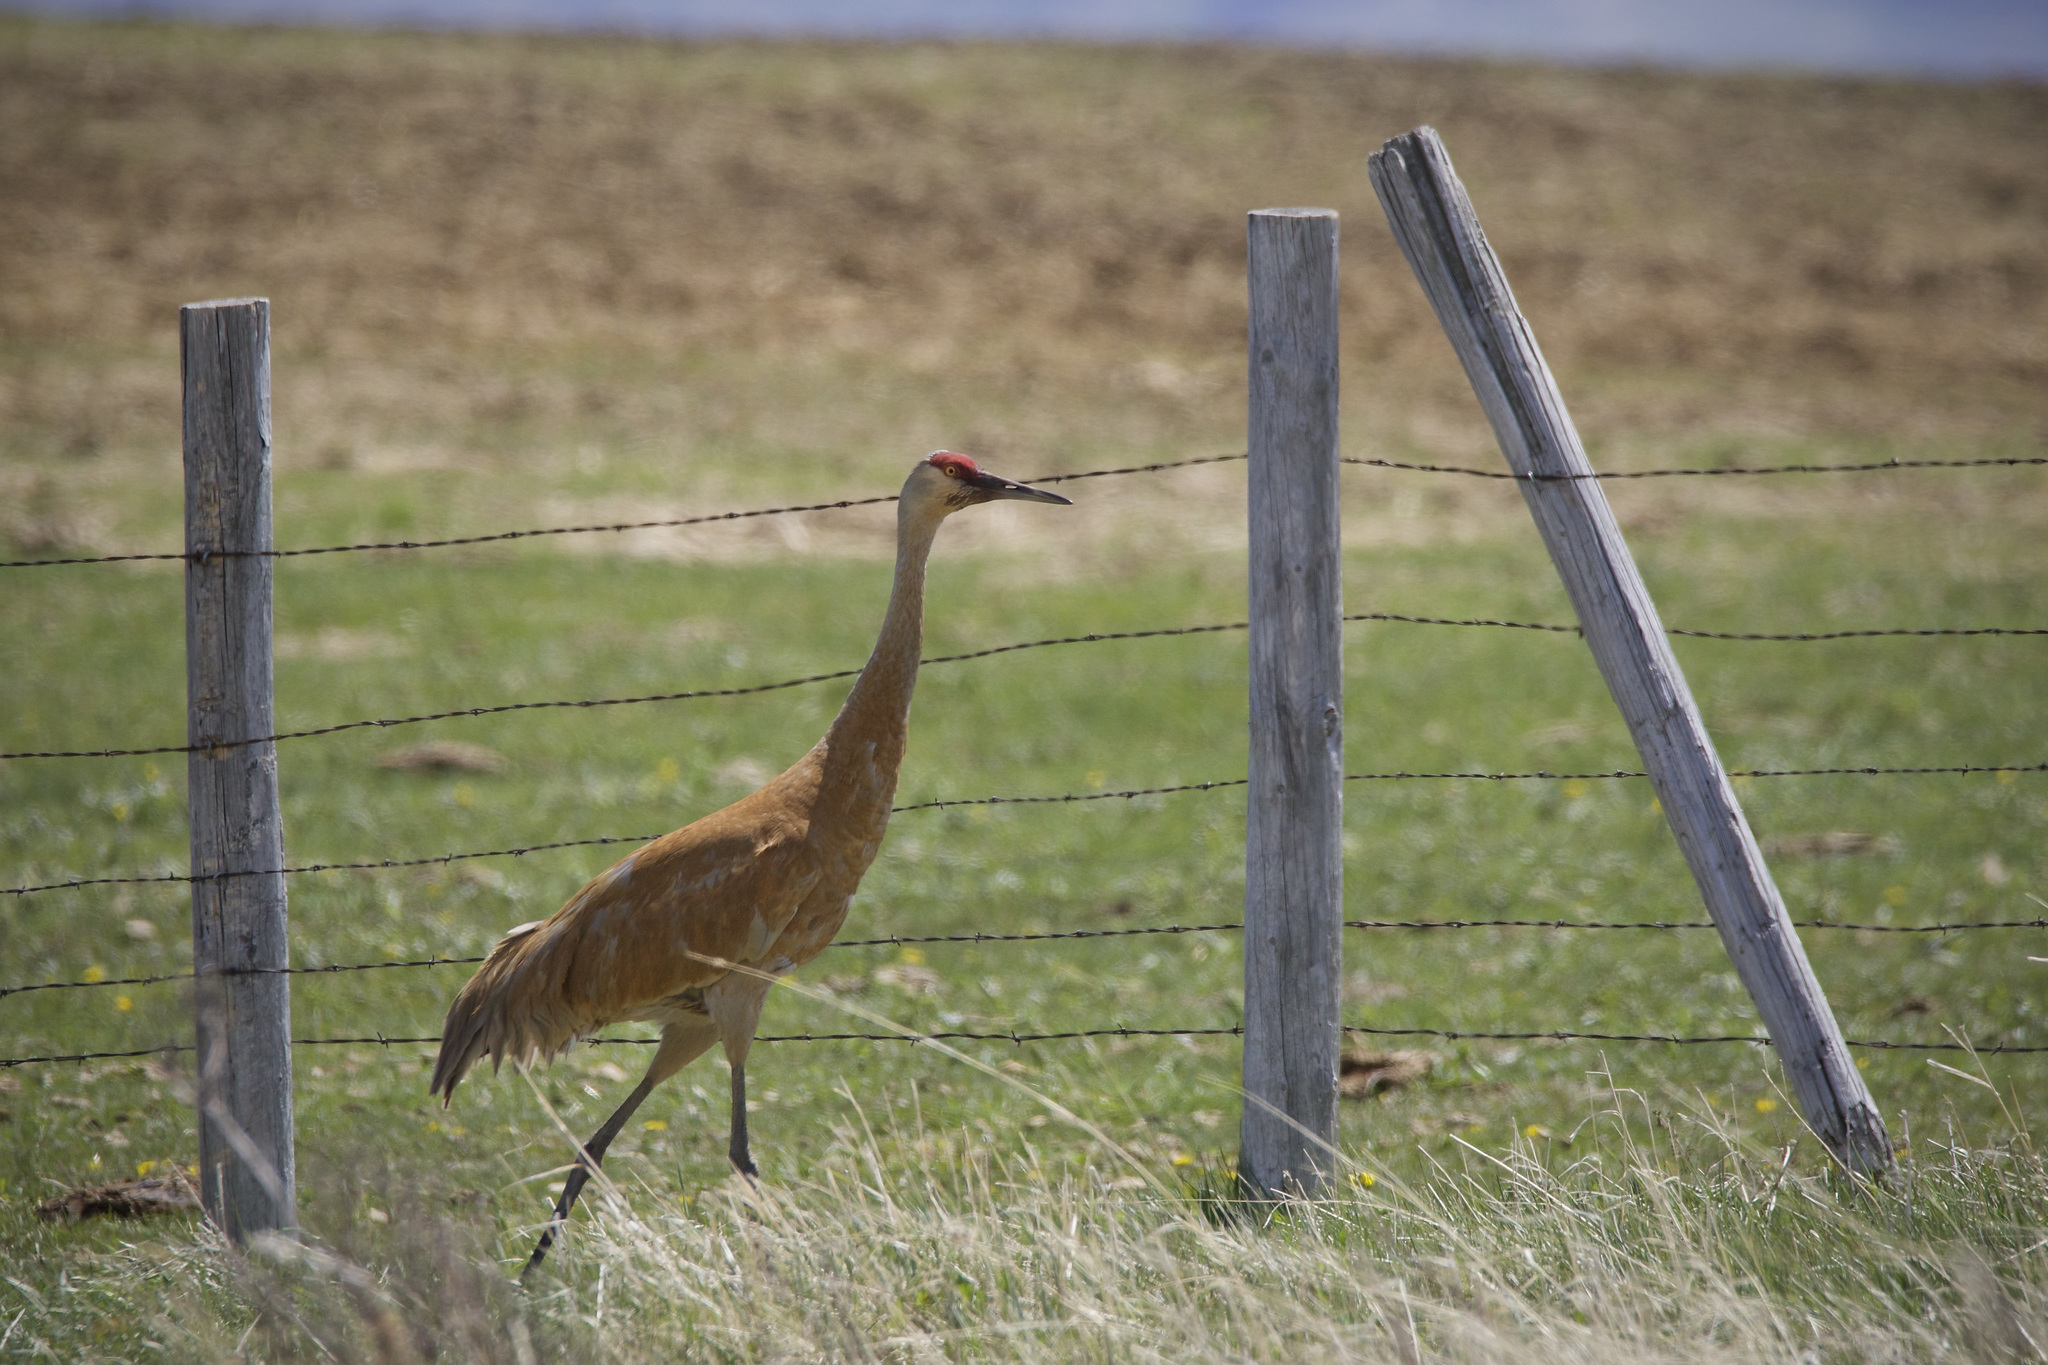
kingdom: Animalia
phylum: Chordata
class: Aves
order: Gruiformes
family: Gruidae
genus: Grus
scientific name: Grus canadensis
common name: Sandhill crane
